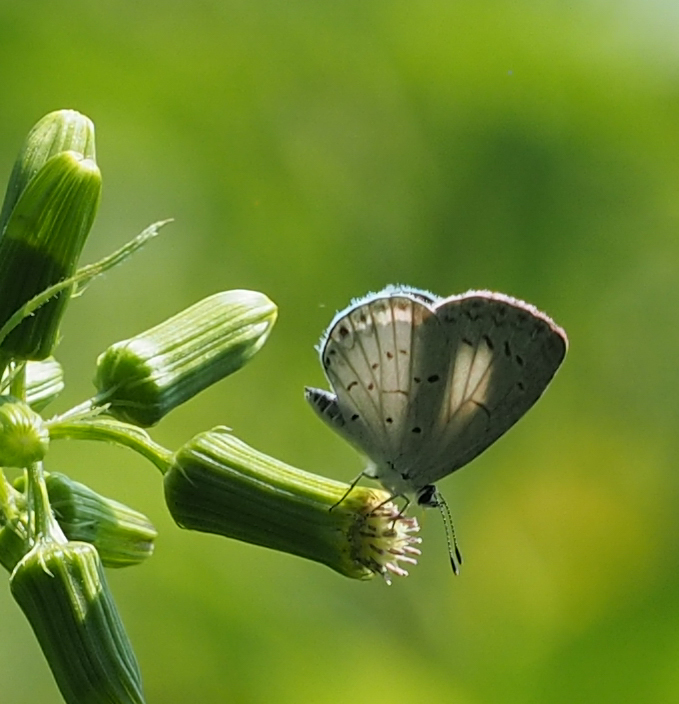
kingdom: Animalia
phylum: Arthropoda
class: Insecta
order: Lepidoptera
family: Lycaenidae
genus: Cyaniris
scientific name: Cyaniris neglecta
